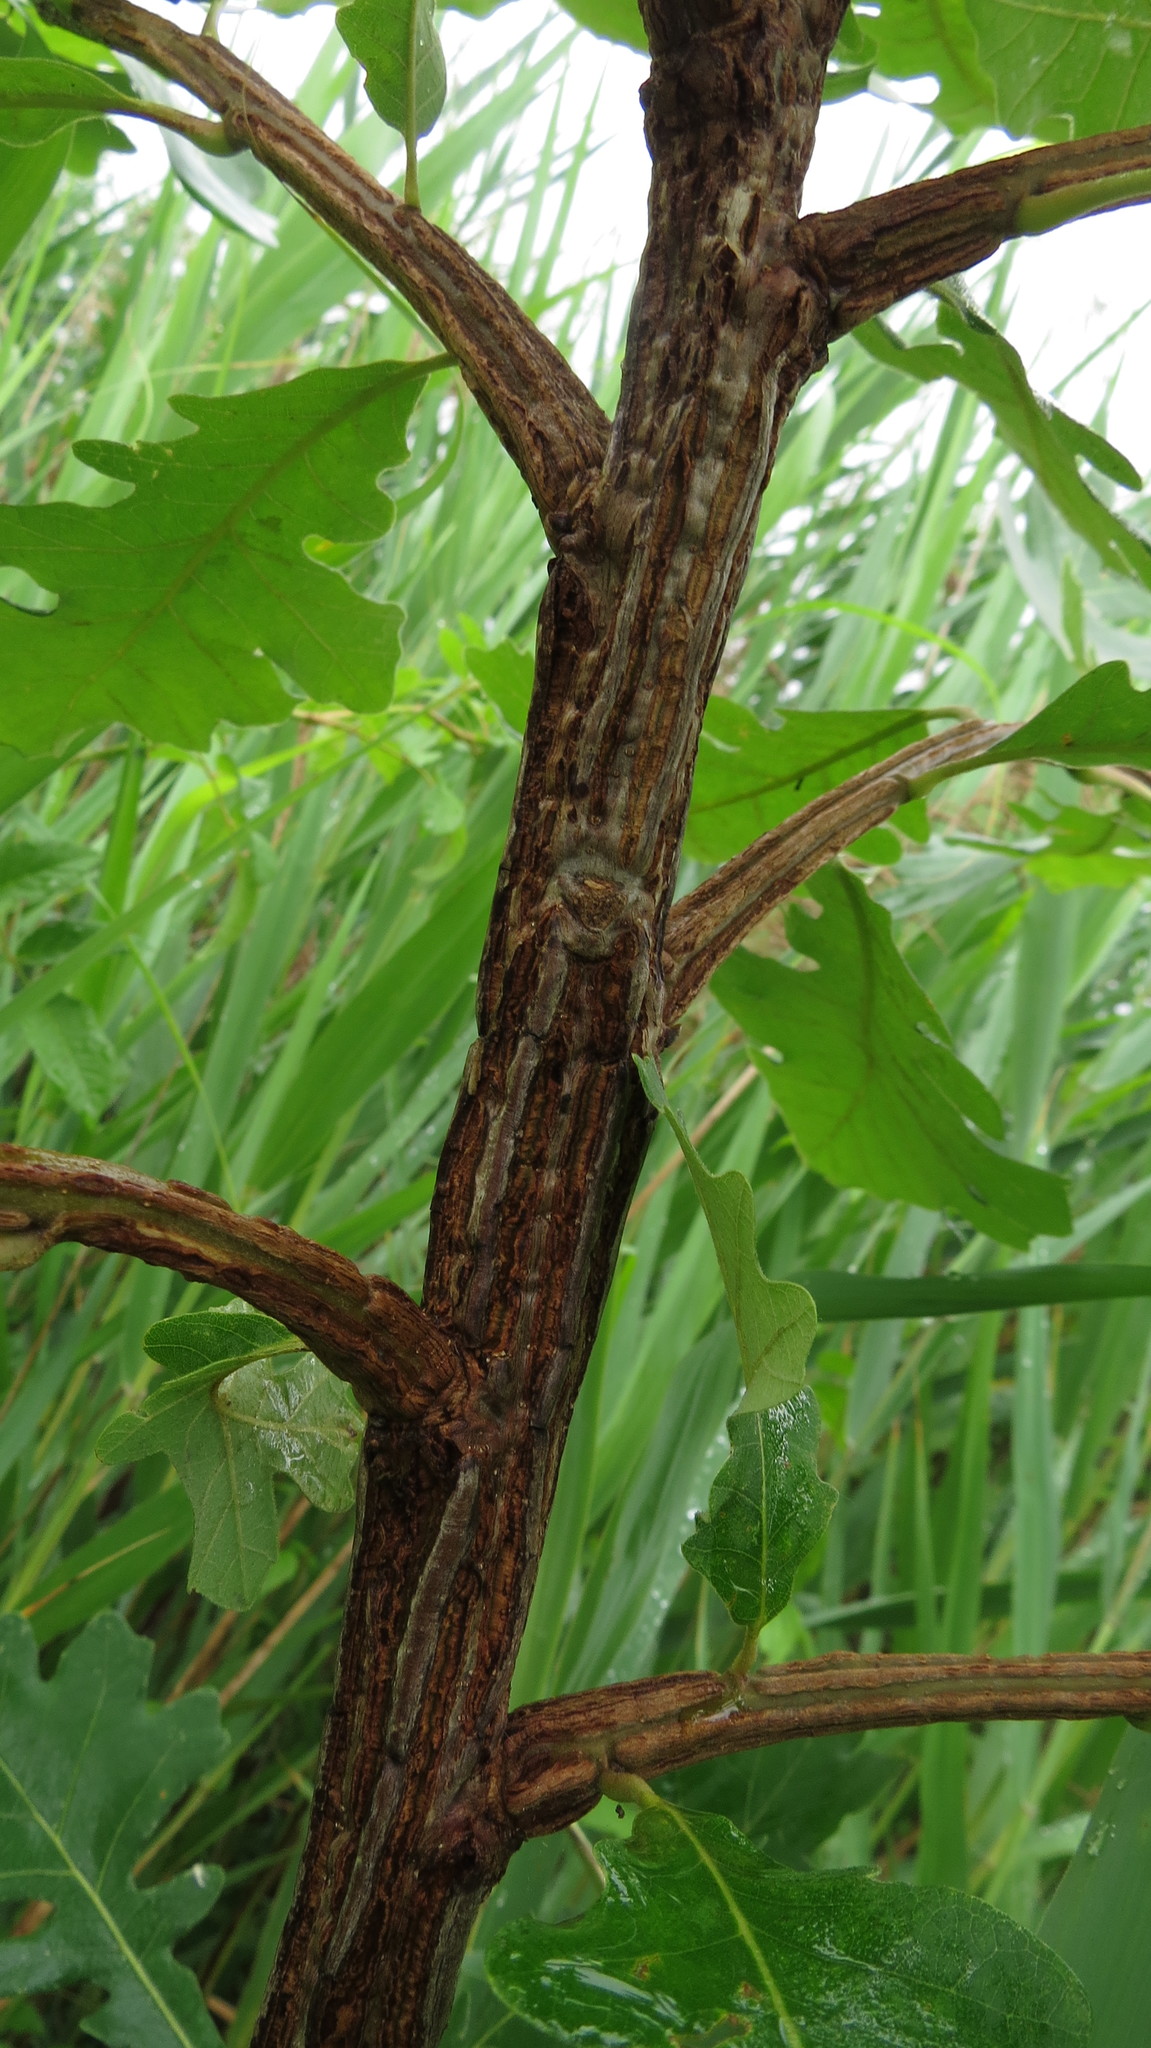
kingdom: Plantae
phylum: Tracheophyta
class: Magnoliopsida
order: Fagales
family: Fagaceae
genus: Quercus
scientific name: Quercus macrocarpa
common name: Bur oak
